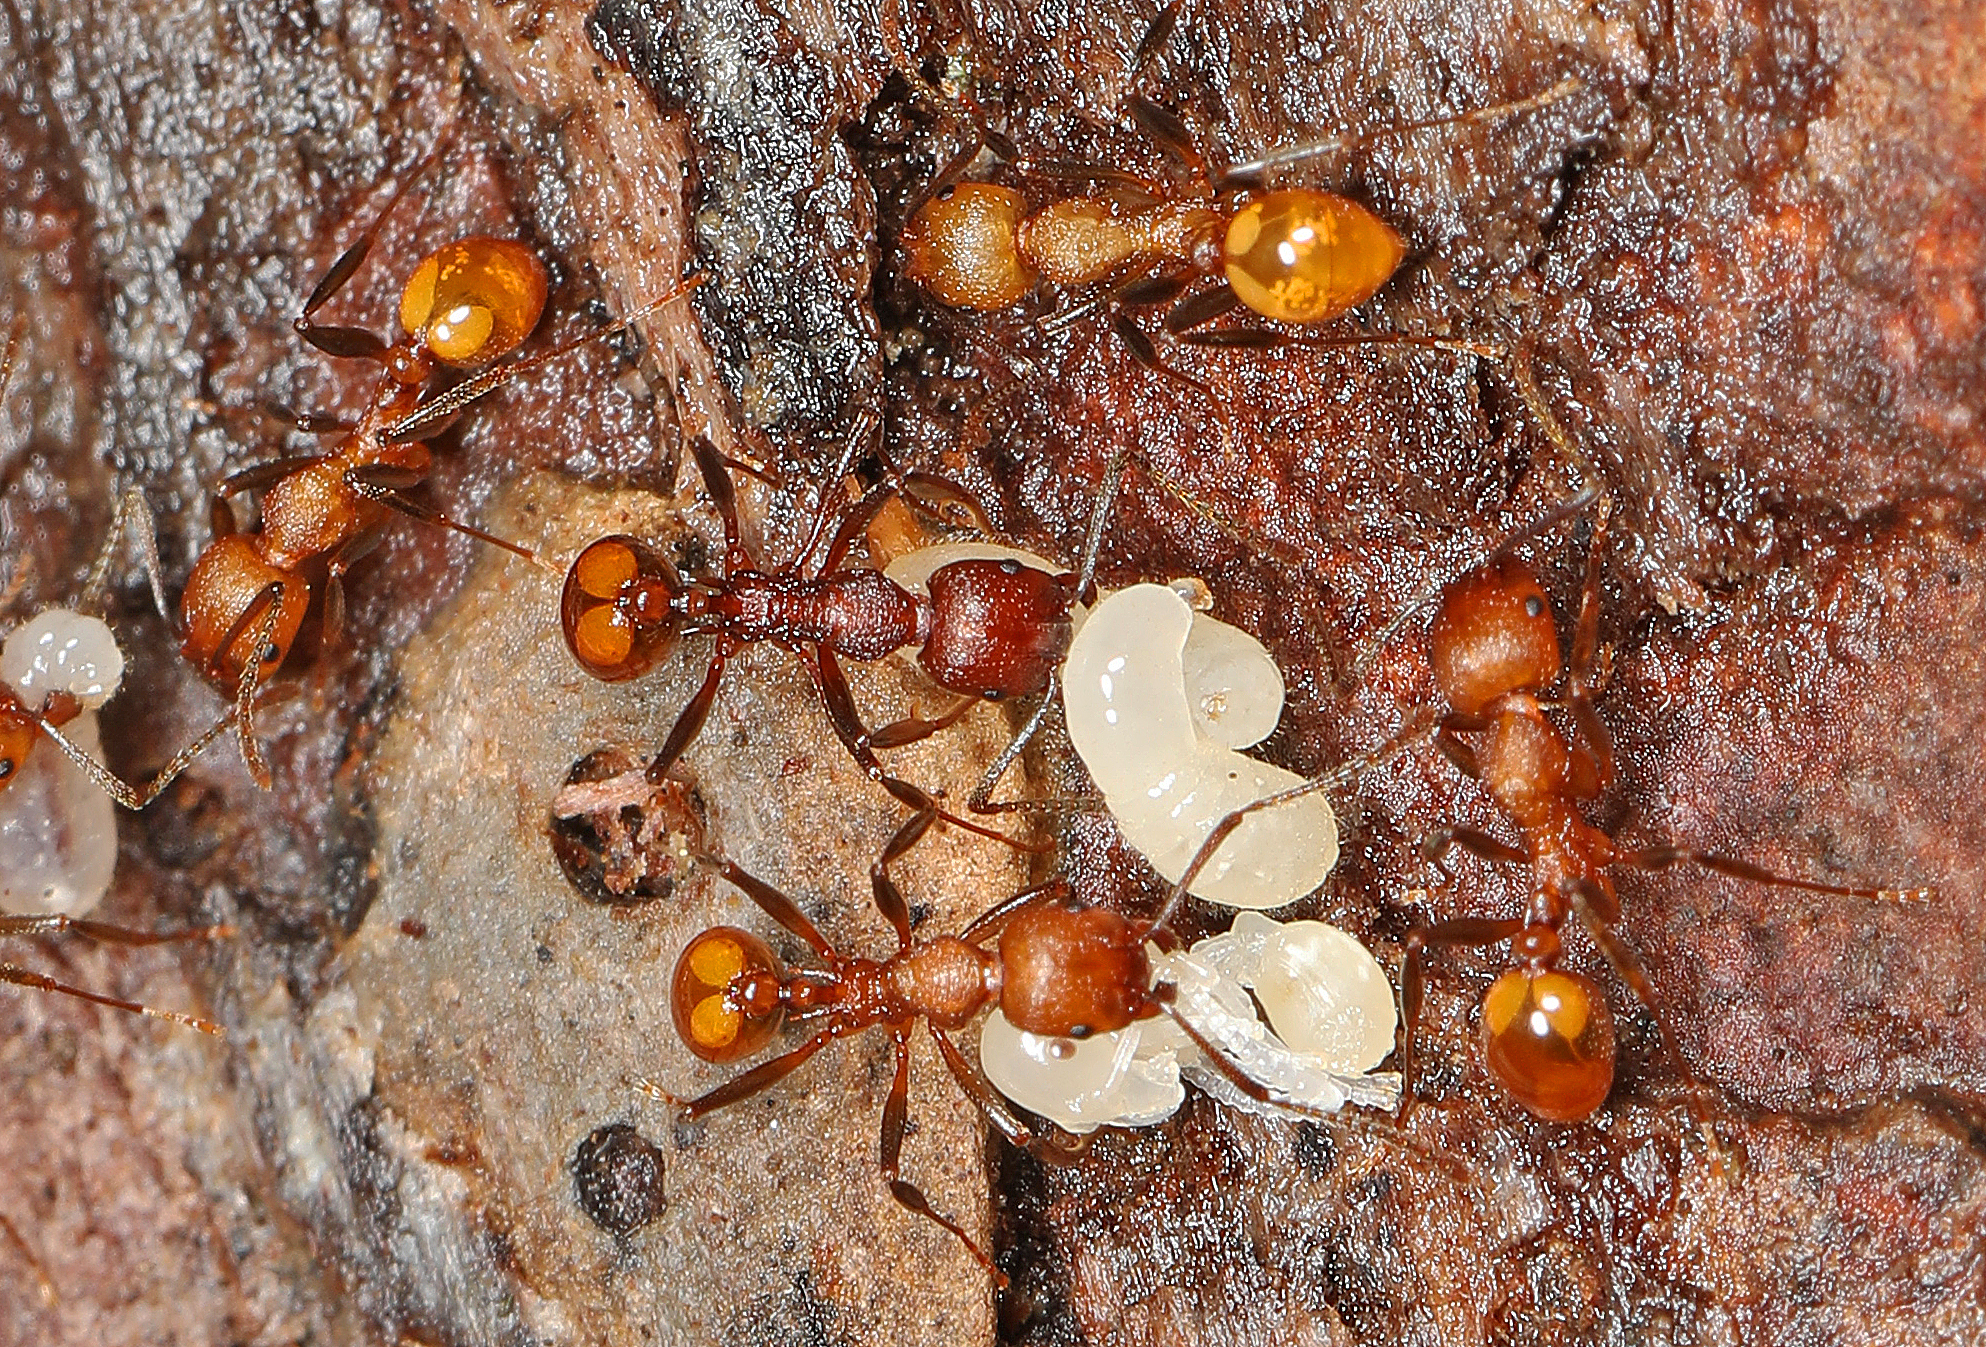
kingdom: Animalia
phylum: Arthropoda
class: Insecta
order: Hymenoptera
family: Formicidae
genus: Aphaenogaster
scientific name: Aphaenogaster tennesseensis
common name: Tennessee thread-waisted ant
